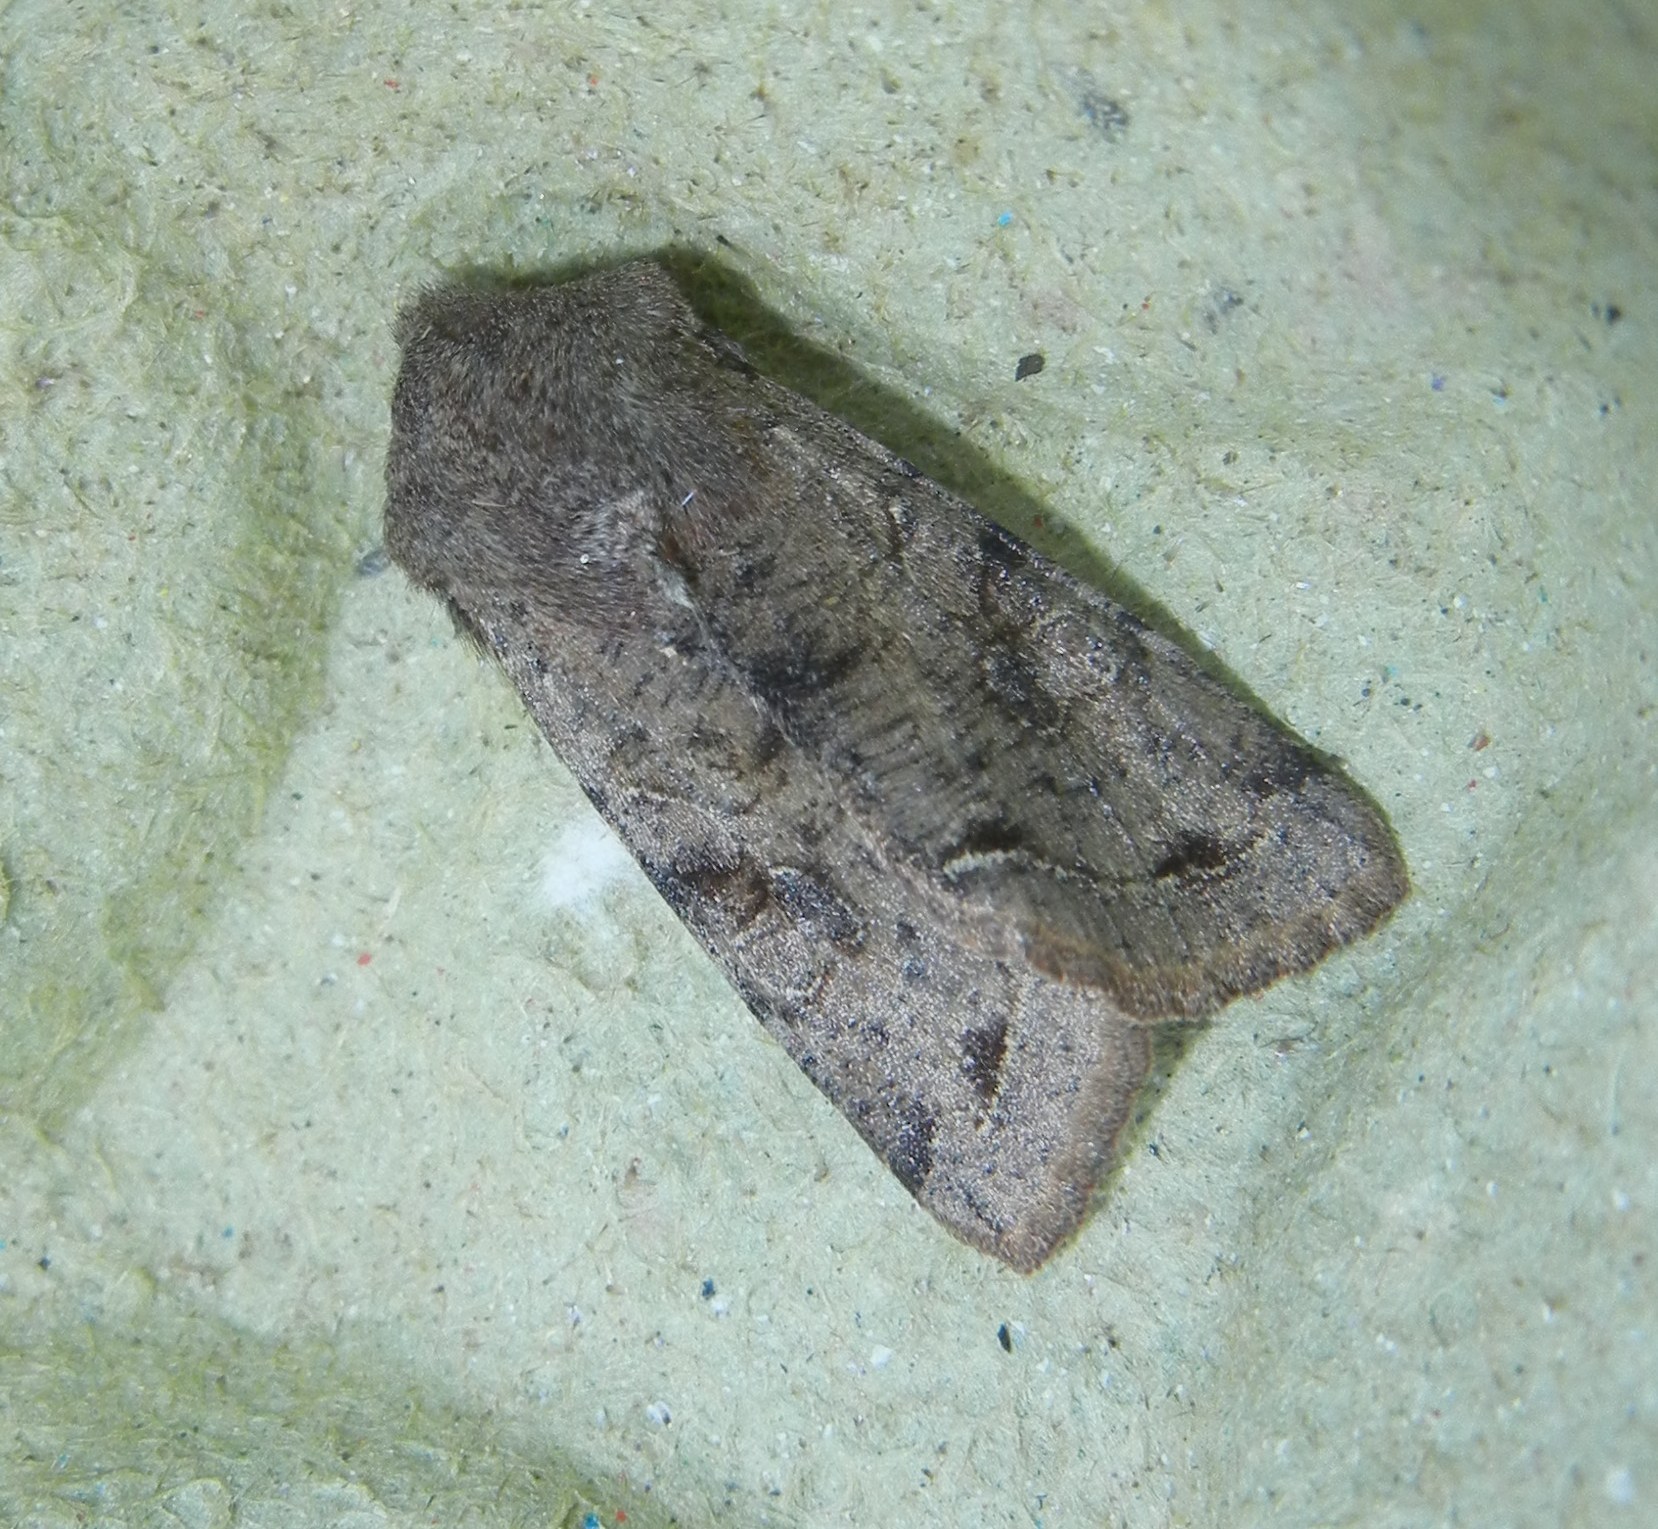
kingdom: Animalia
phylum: Arthropoda
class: Insecta
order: Lepidoptera
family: Noctuidae
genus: Orthosia
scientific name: Orthosia incerta
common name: Clouded drab
